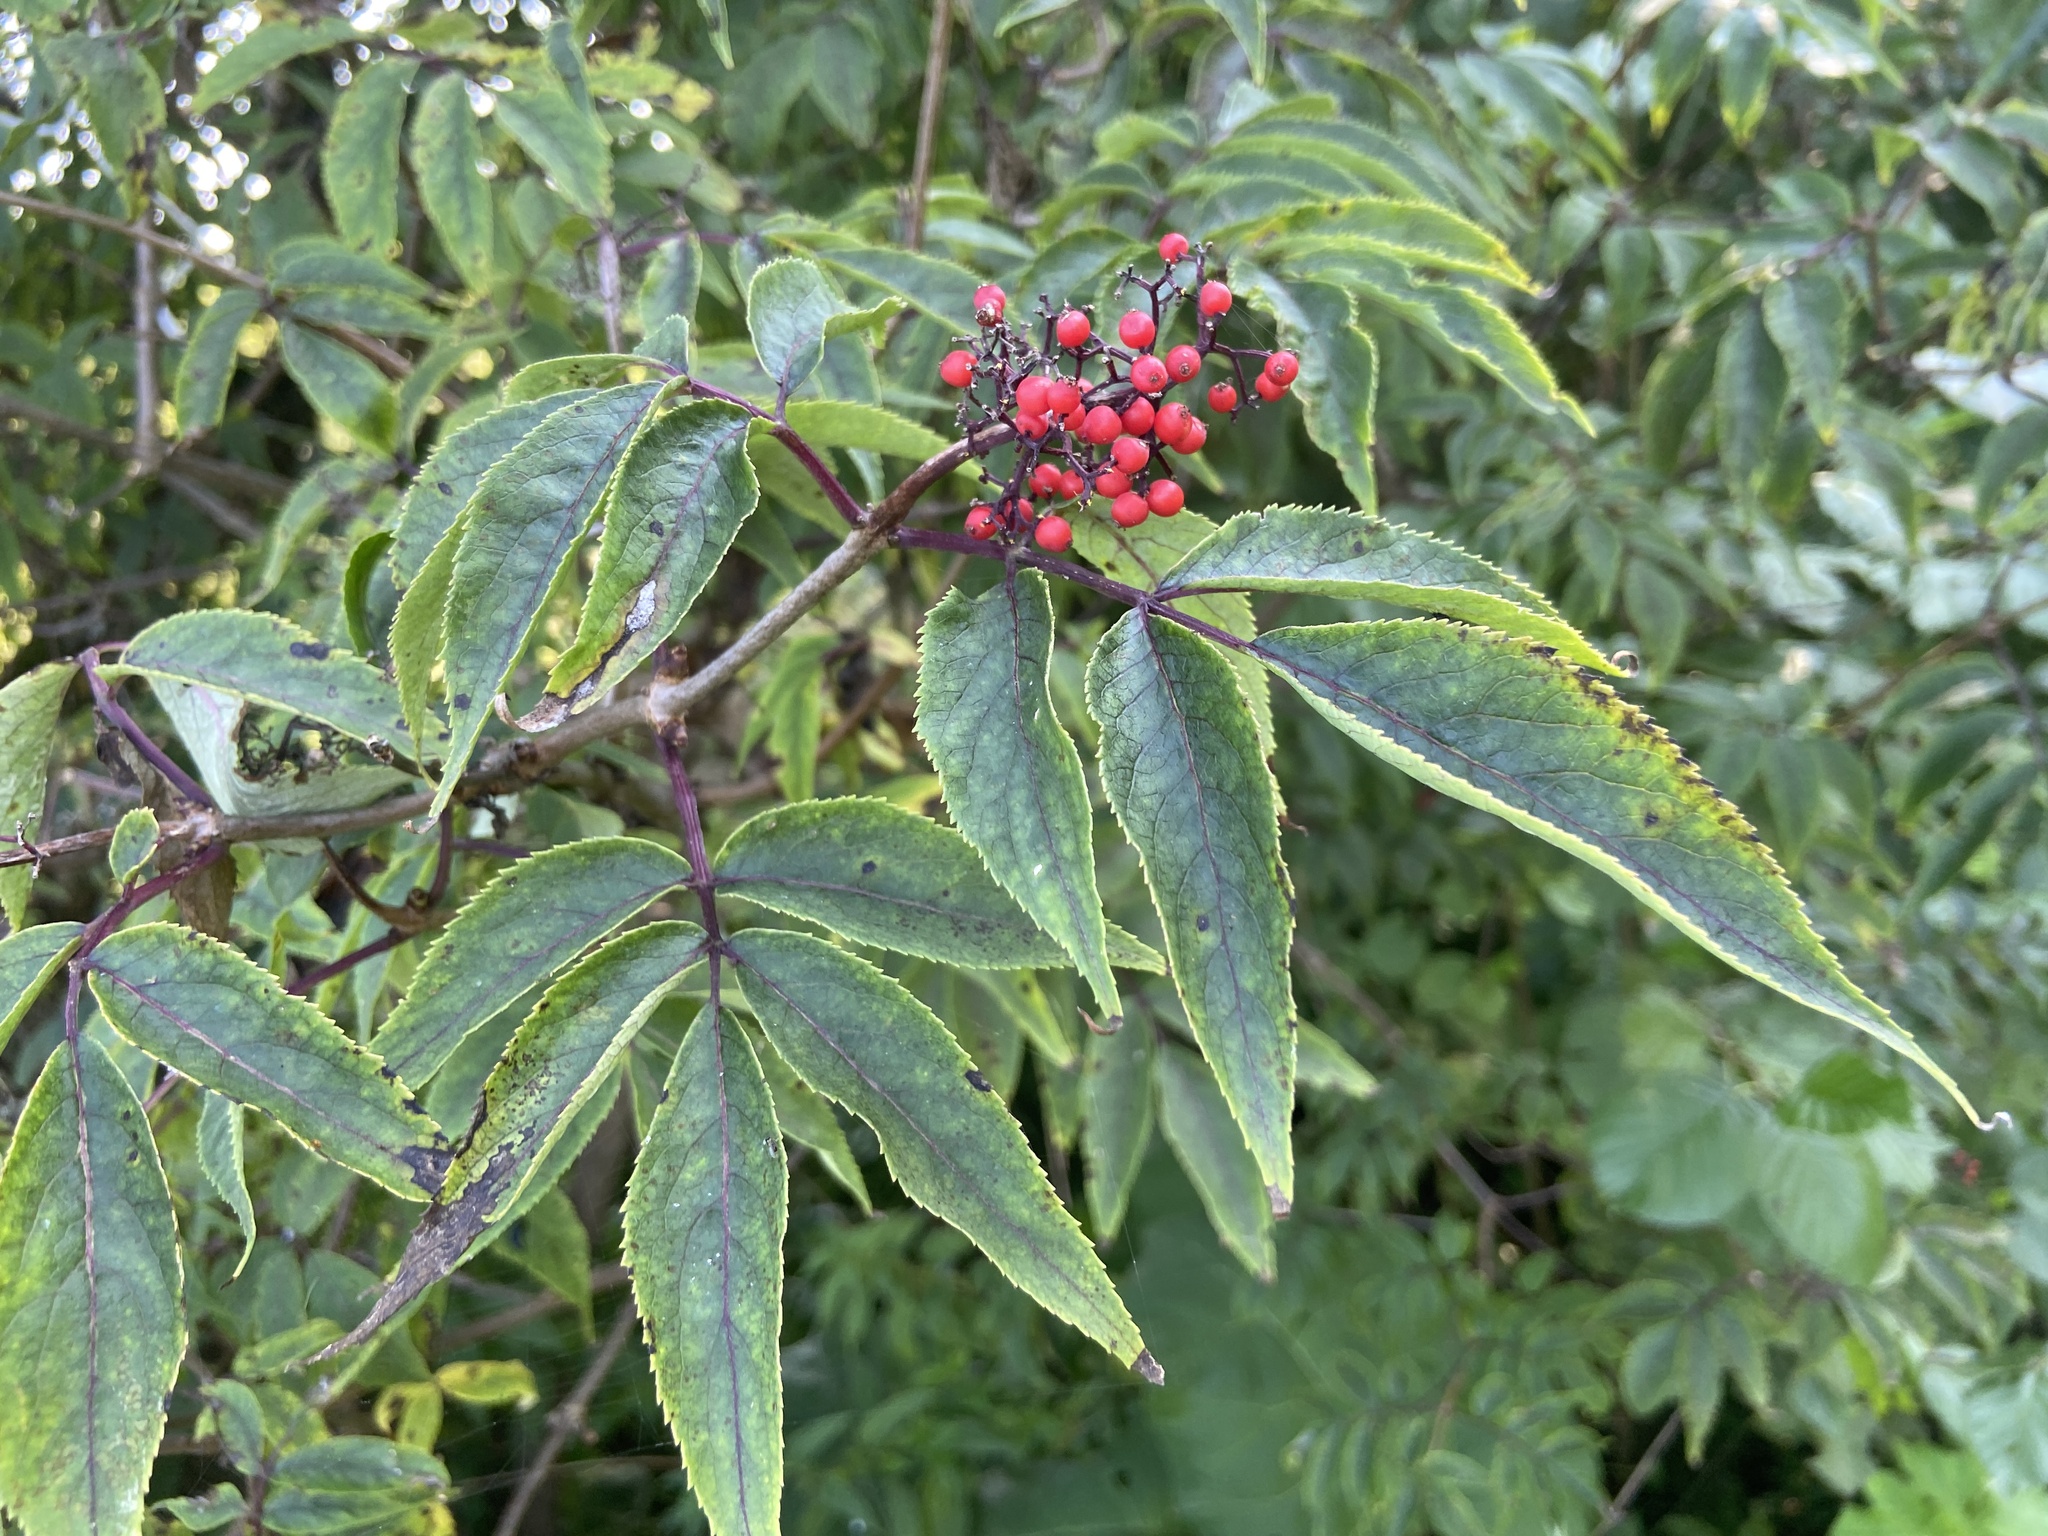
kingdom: Plantae
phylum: Tracheophyta
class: Magnoliopsida
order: Dipsacales
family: Viburnaceae
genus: Sambucus
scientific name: Sambucus racemosa
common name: Red-berried elder
